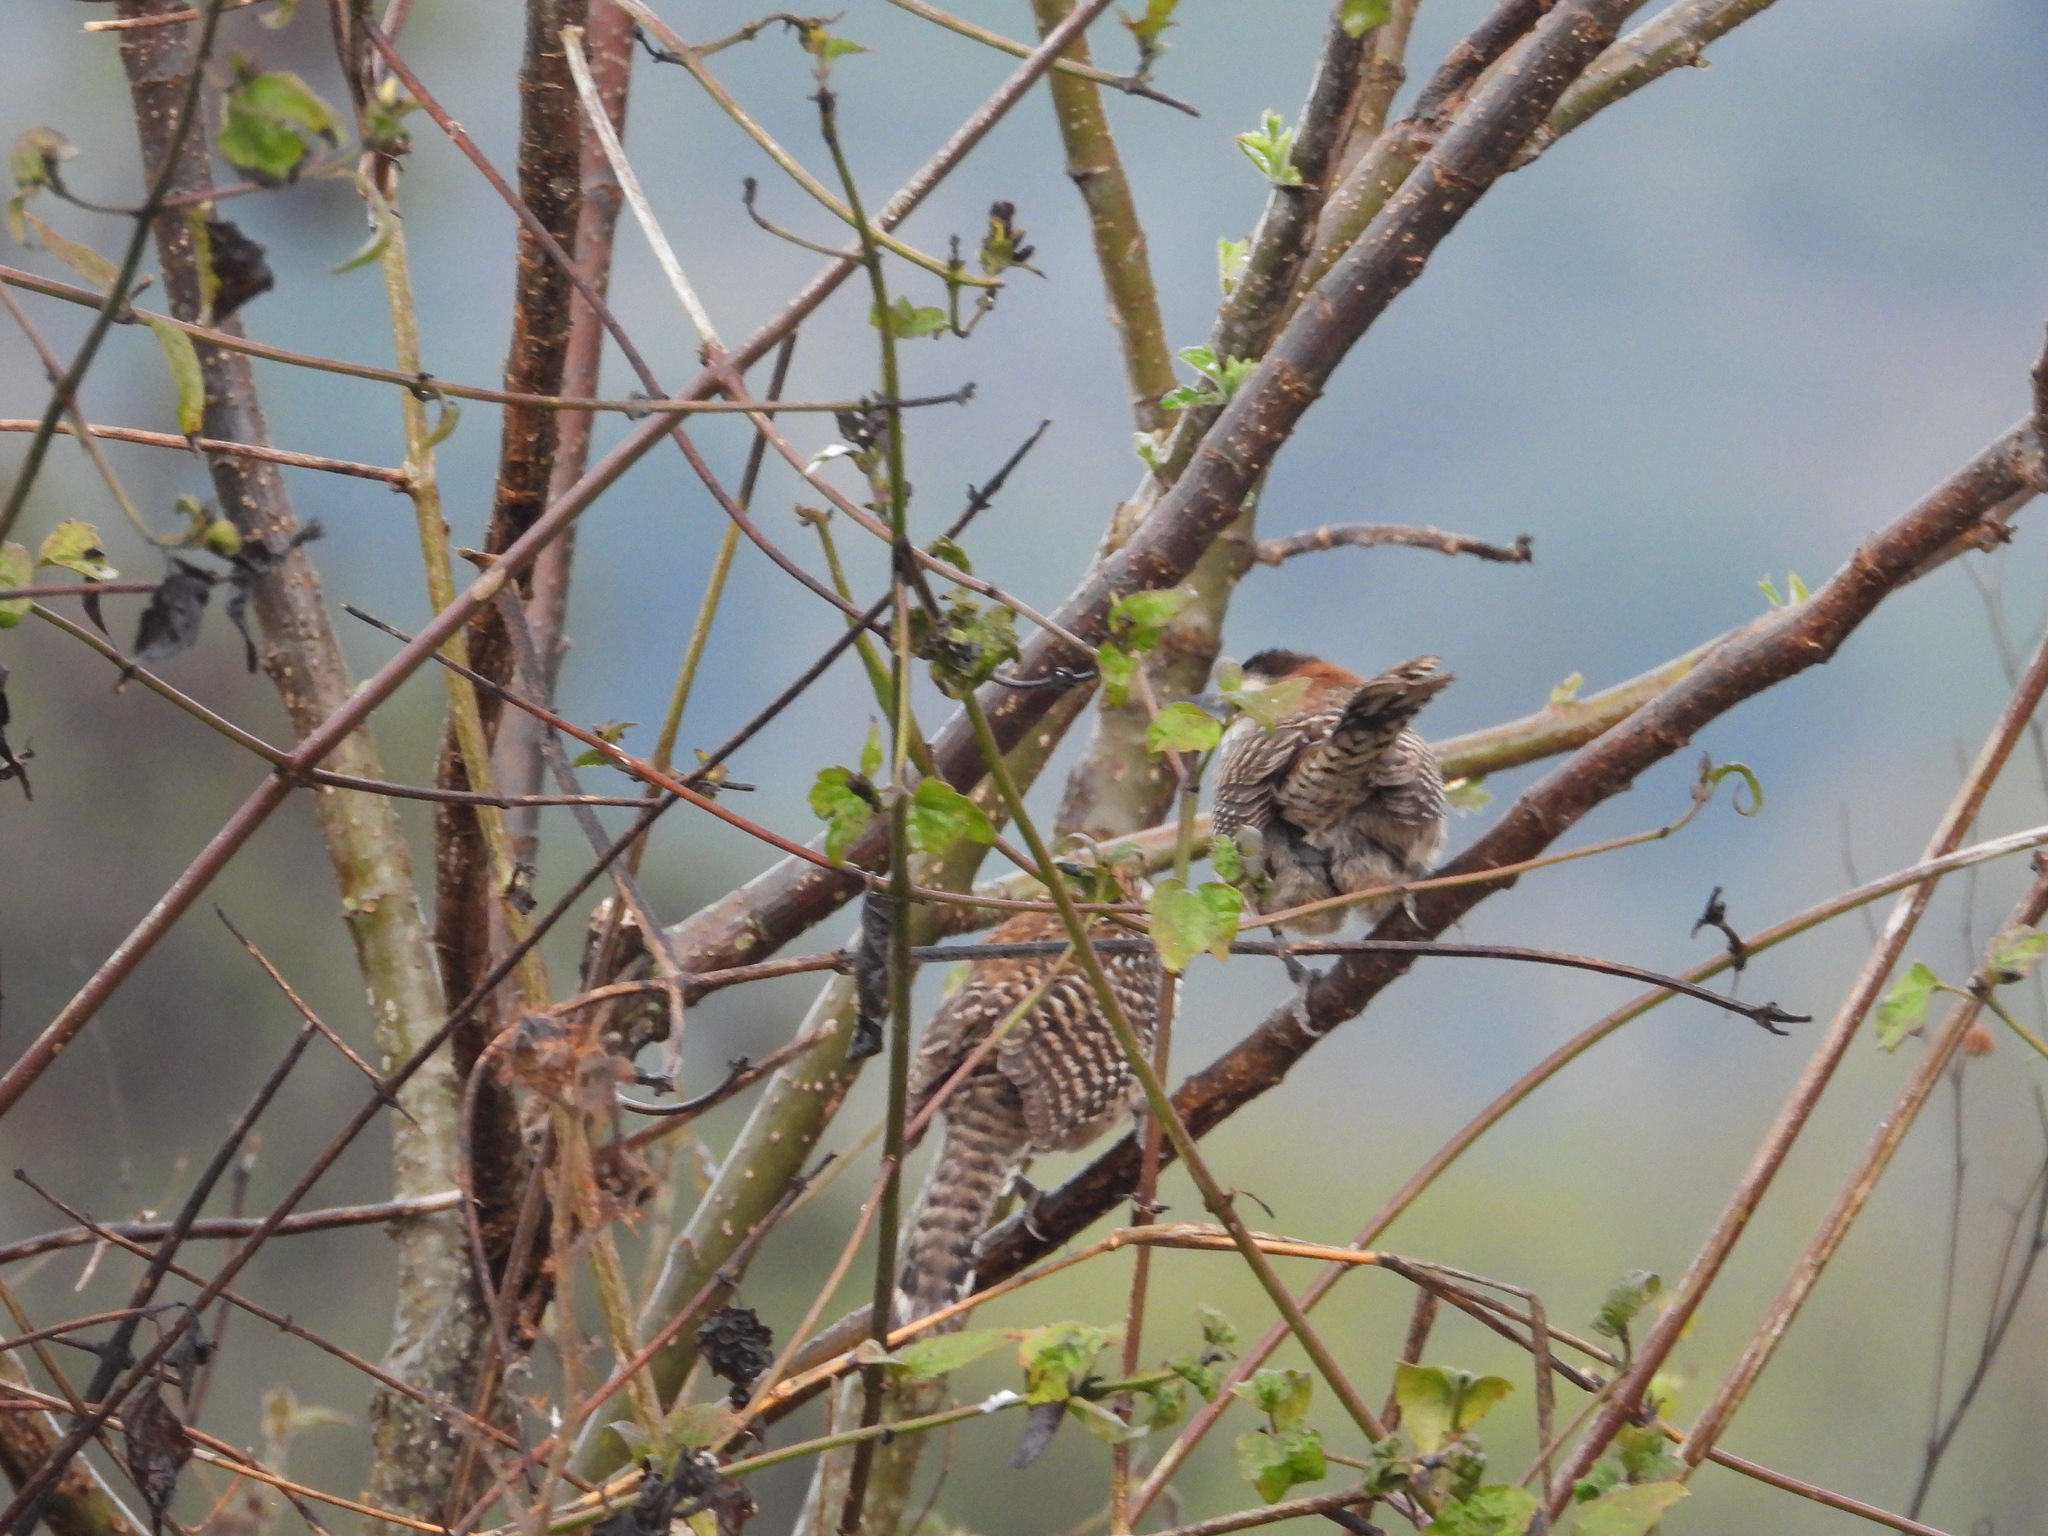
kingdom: Animalia
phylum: Chordata
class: Aves
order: Passeriformes
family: Troglodytidae
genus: Campylorhynchus
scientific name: Campylorhynchus rufinucha
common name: Rufous-naped wren
